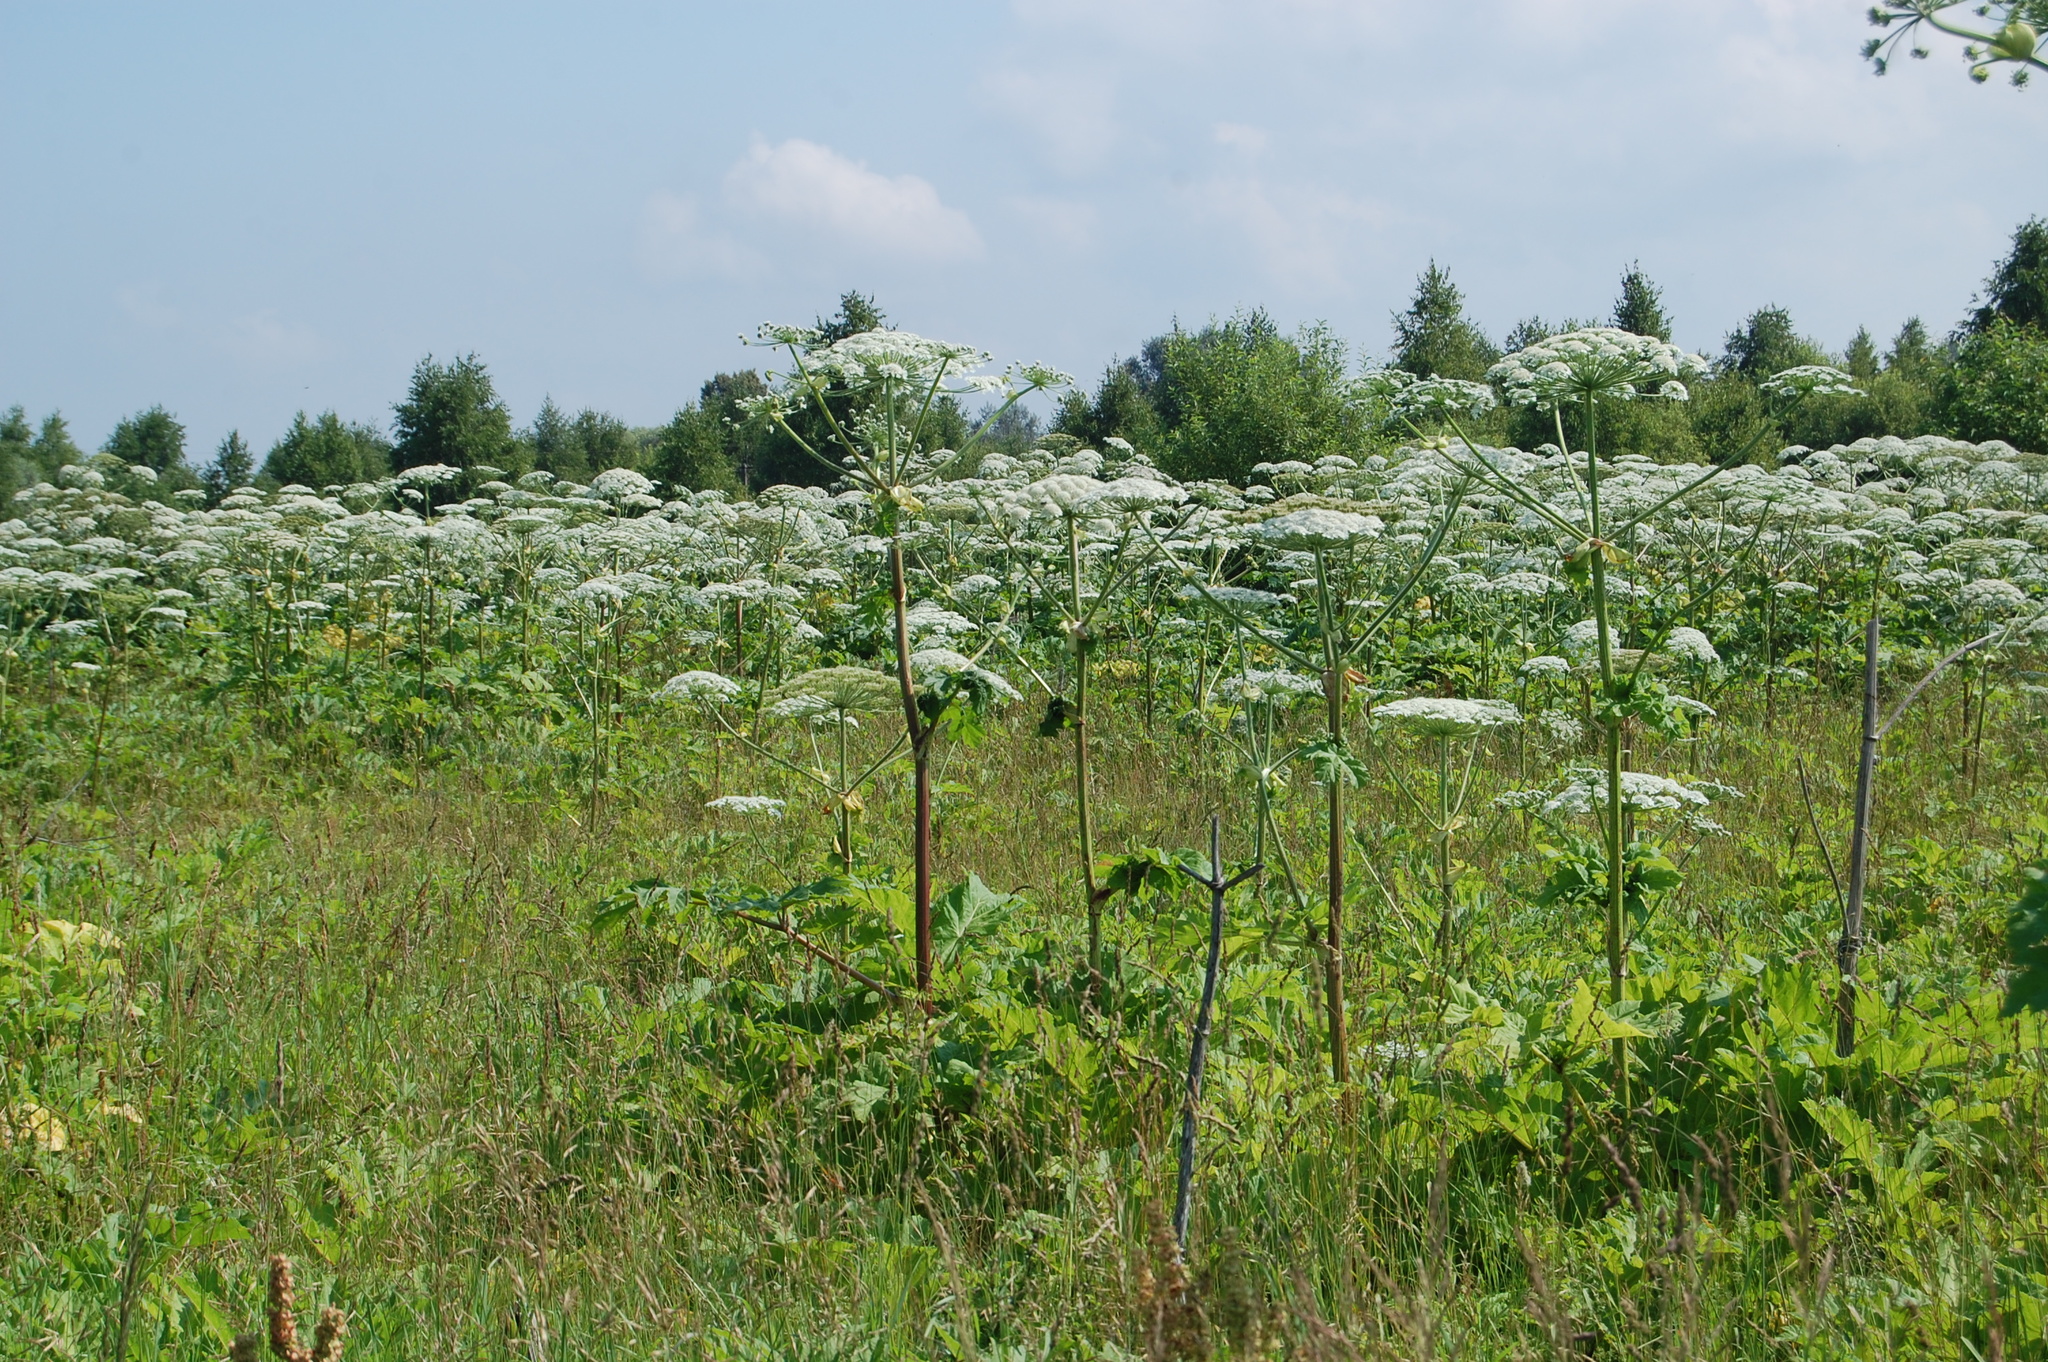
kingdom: Plantae
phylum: Tracheophyta
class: Magnoliopsida
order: Apiales
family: Apiaceae
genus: Heracleum
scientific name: Heracleum sosnowskyi
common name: Sosnowsky's hogweed
